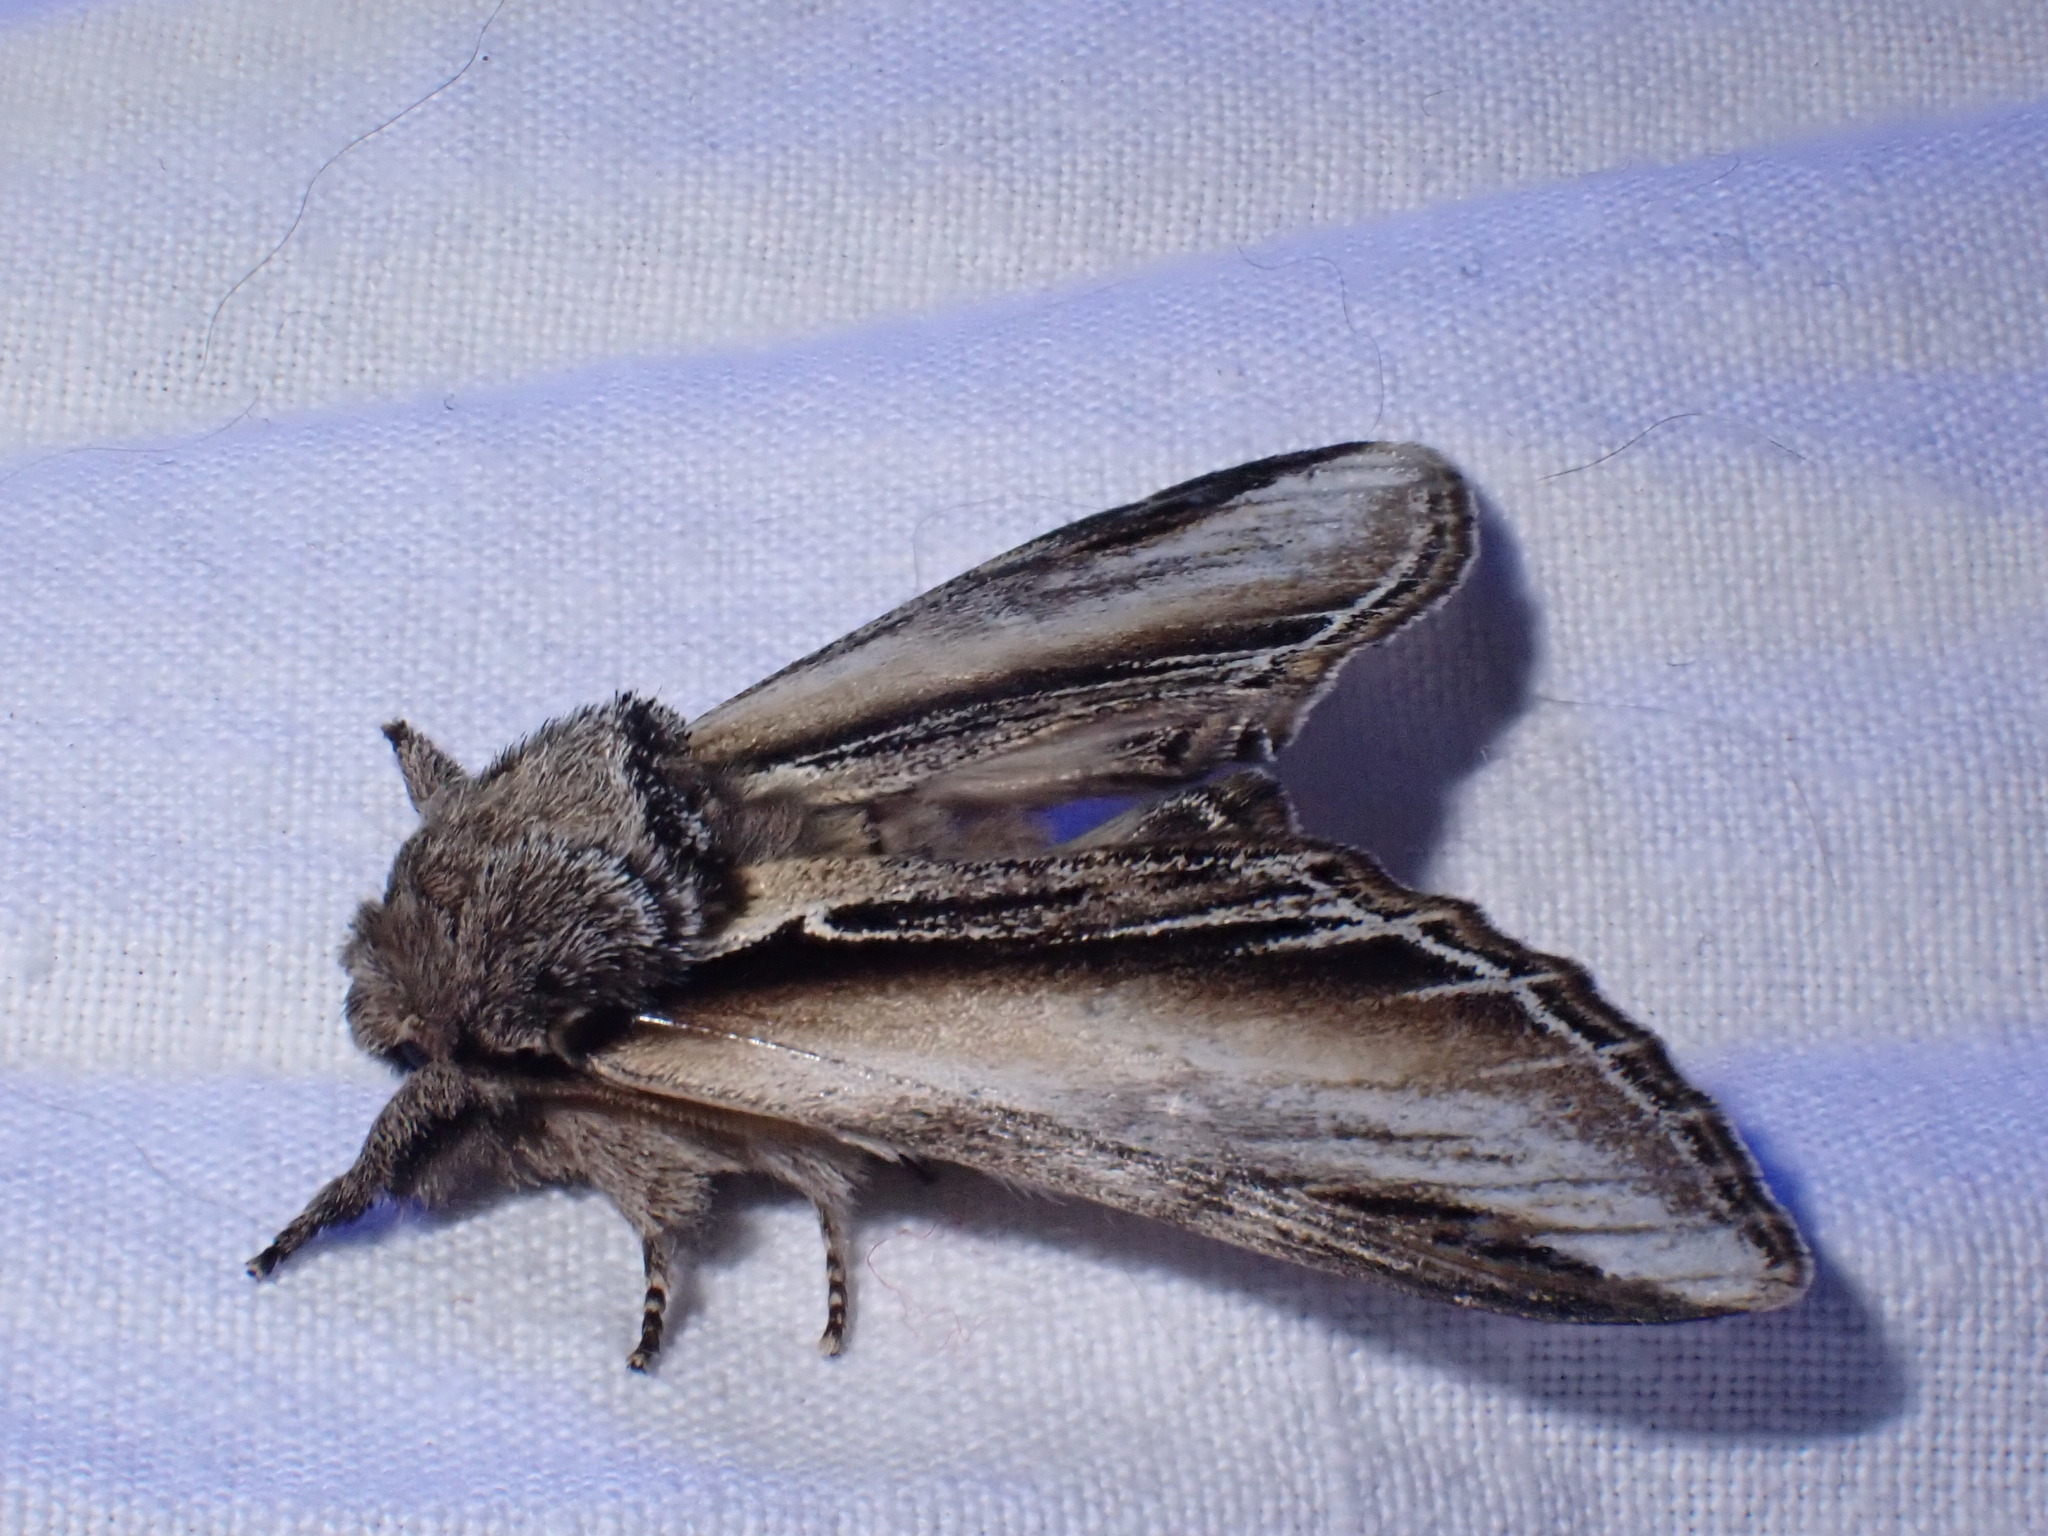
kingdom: Animalia
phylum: Arthropoda
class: Insecta
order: Lepidoptera
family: Notodontidae
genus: Pheosia
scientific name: Pheosia tremula
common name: Swallow prominent
